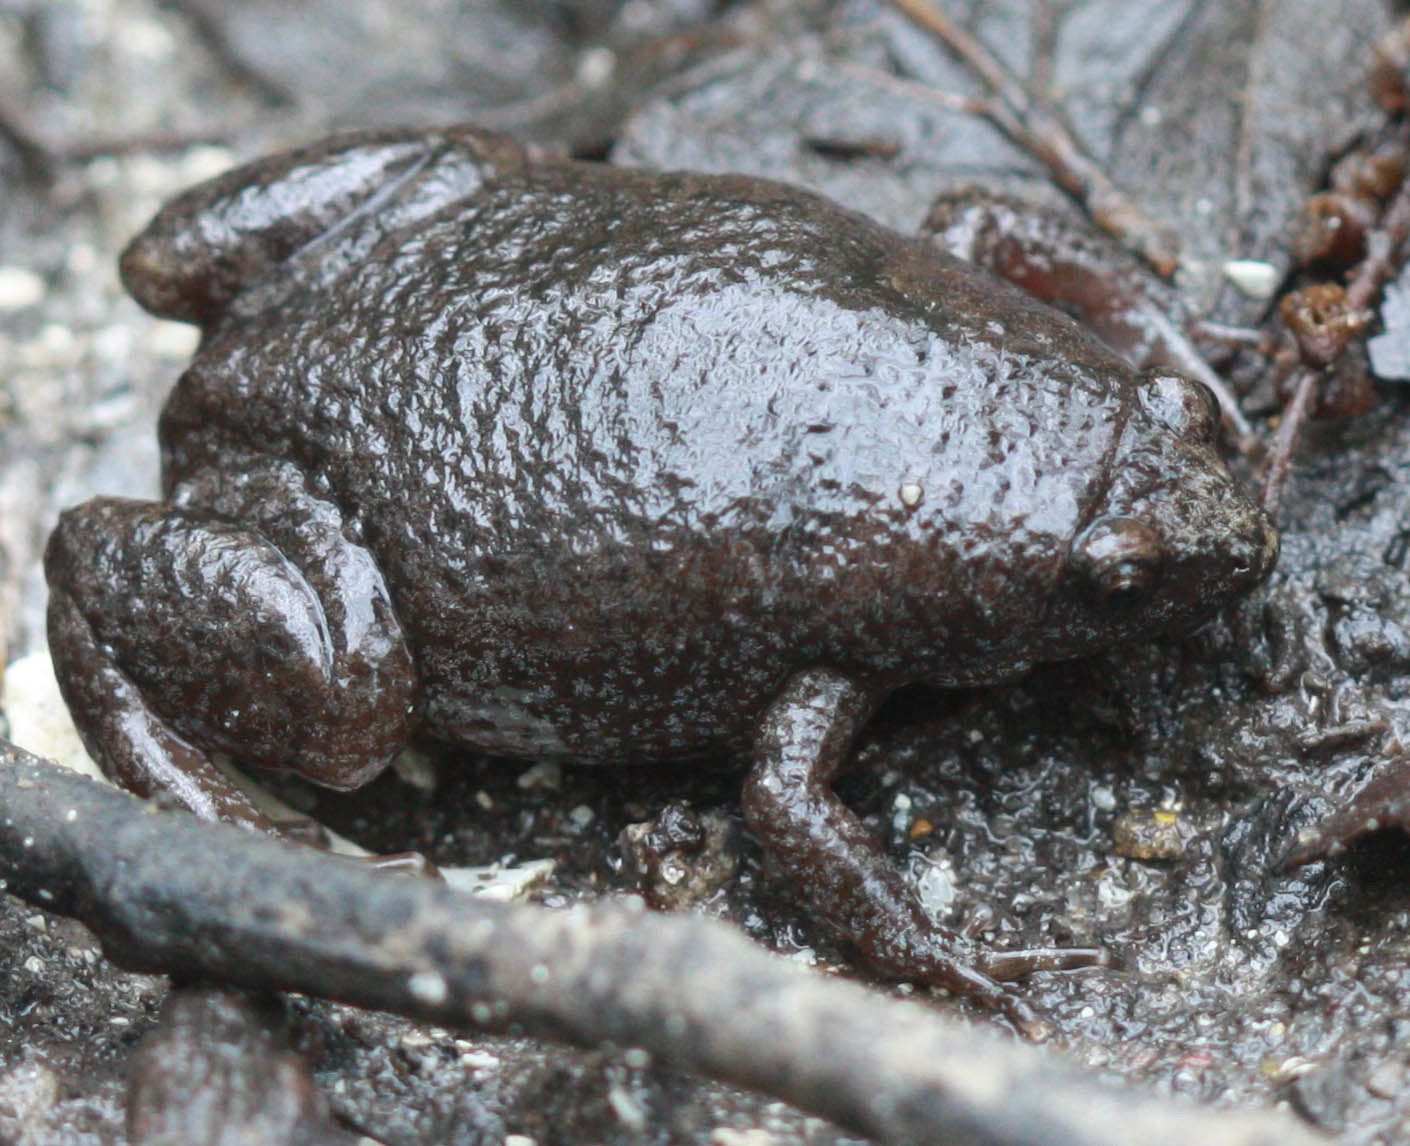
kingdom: Animalia
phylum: Chordata
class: Amphibia
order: Anura
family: Microhylidae
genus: Gastrophryne
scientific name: Gastrophryne carolinensis
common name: Eastern narrowmouth toad
